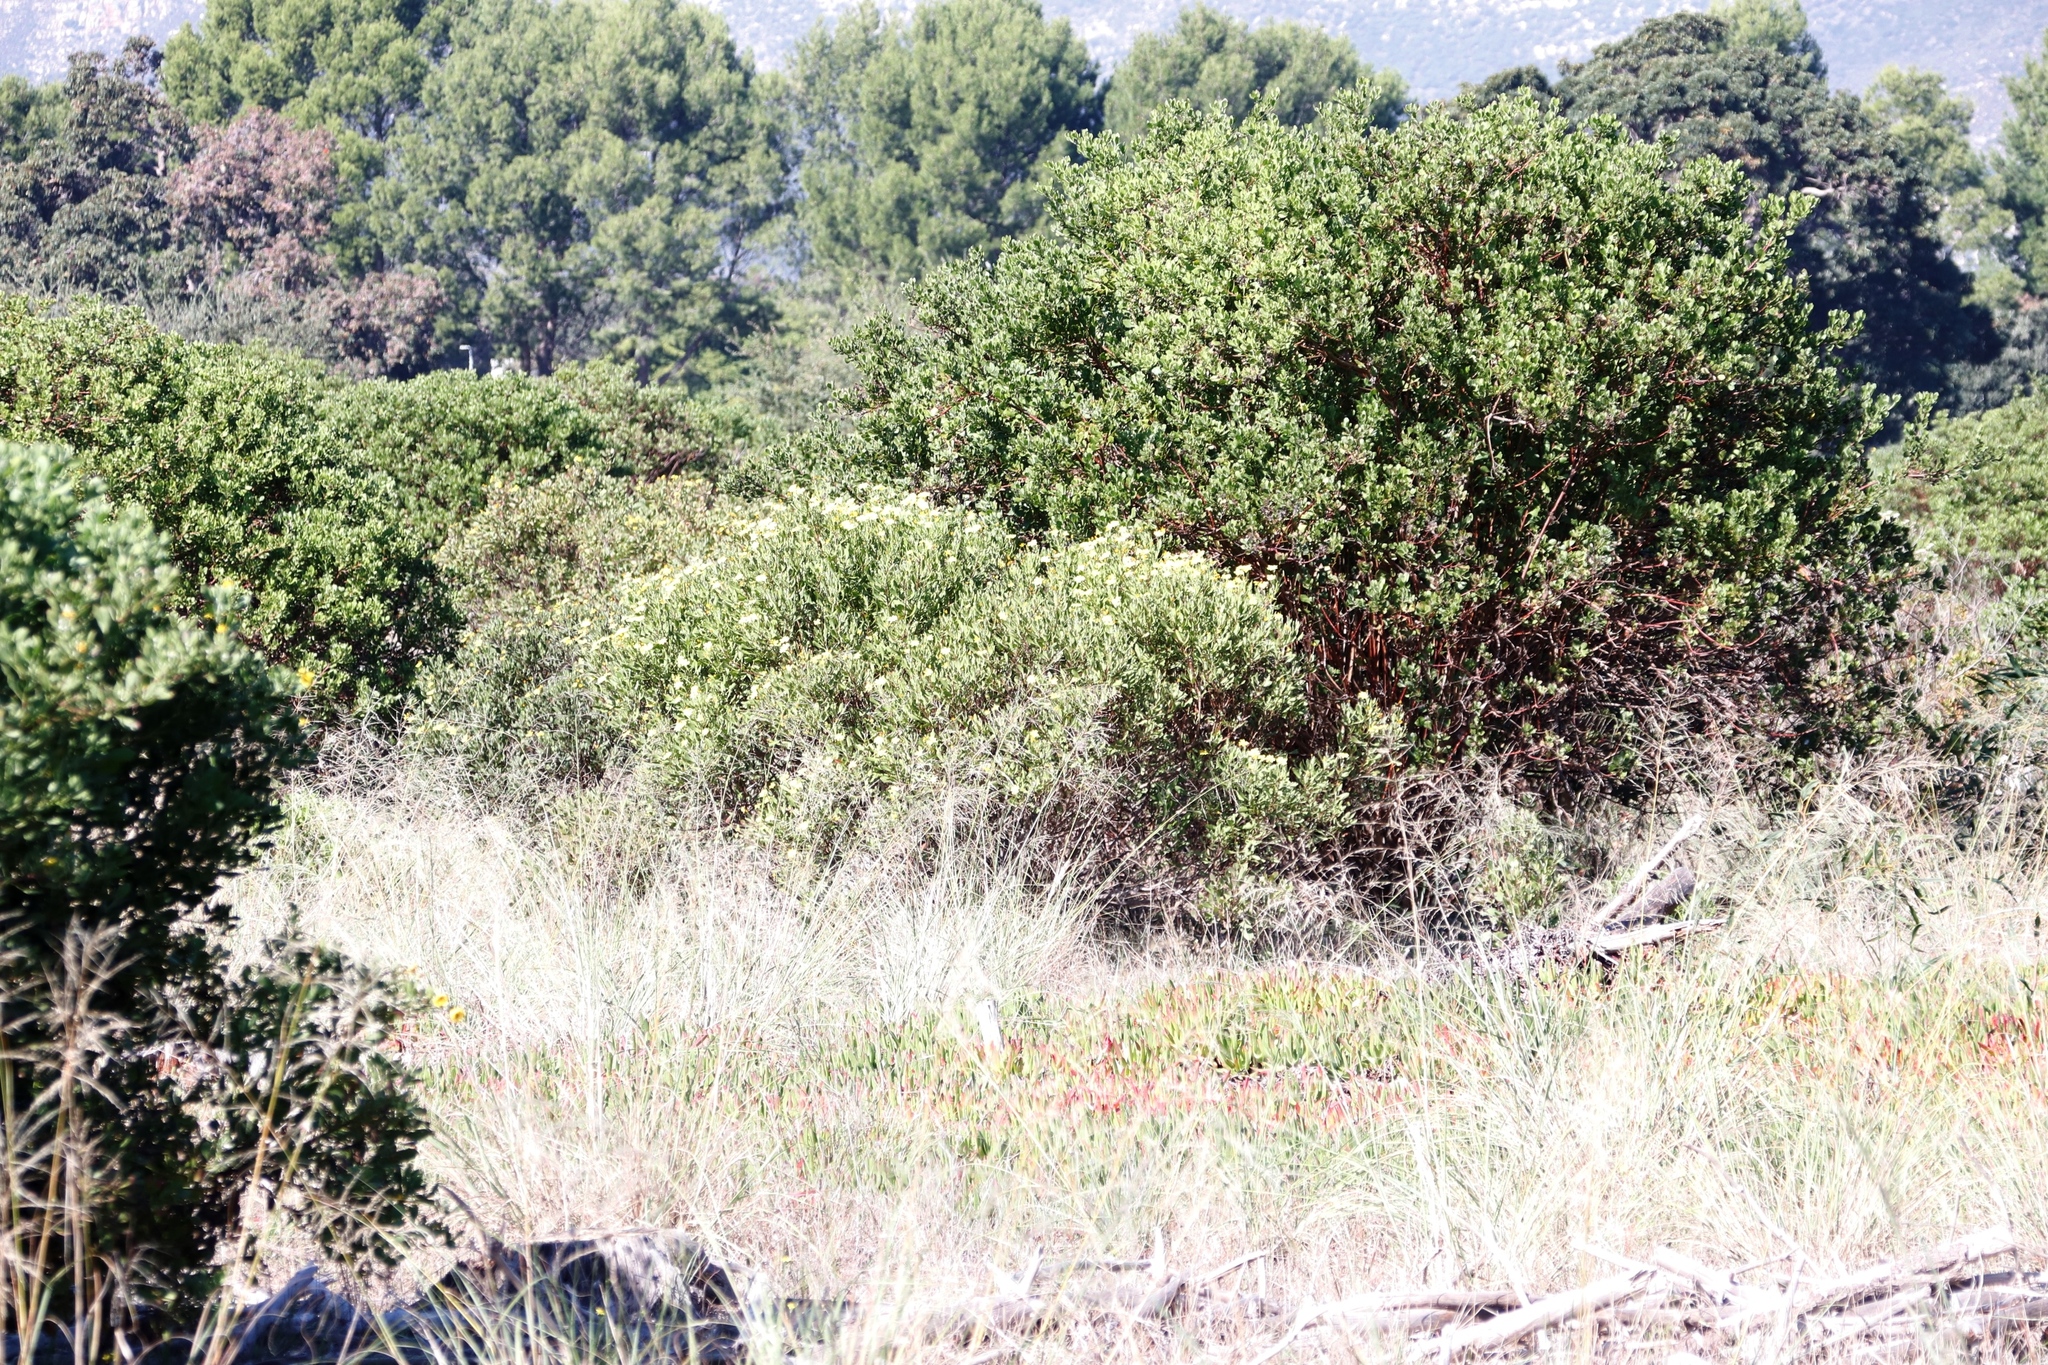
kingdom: Plantae
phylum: Tracheophyta
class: Magnoliopsida
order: Asterales
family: Asteraceae
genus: Osteospermum
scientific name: Osteospermum moniliferum
